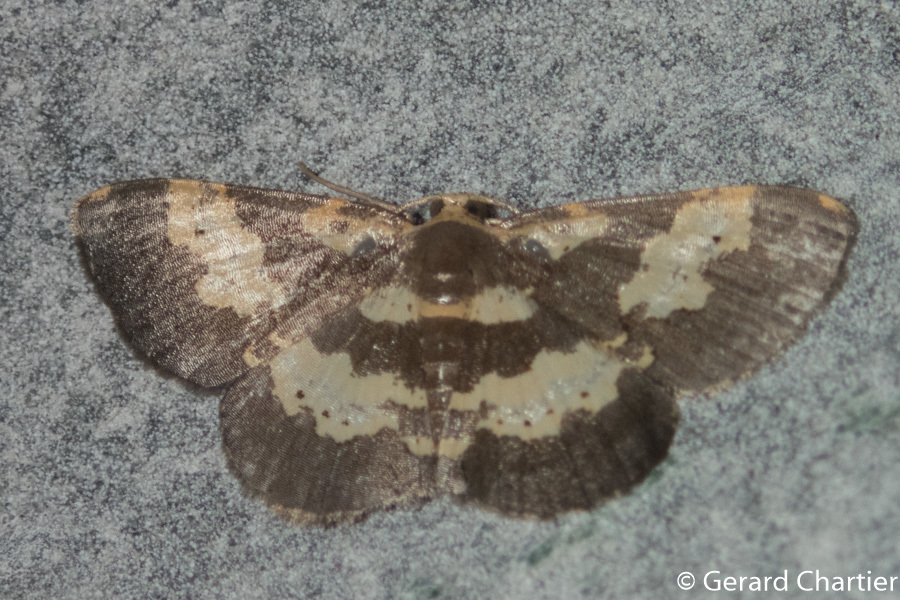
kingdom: Animalia
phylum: Arthropoda
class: Insecta
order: Lepidoptera
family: Geometridae
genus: Peratophyga
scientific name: Peratophyga bifasciata
